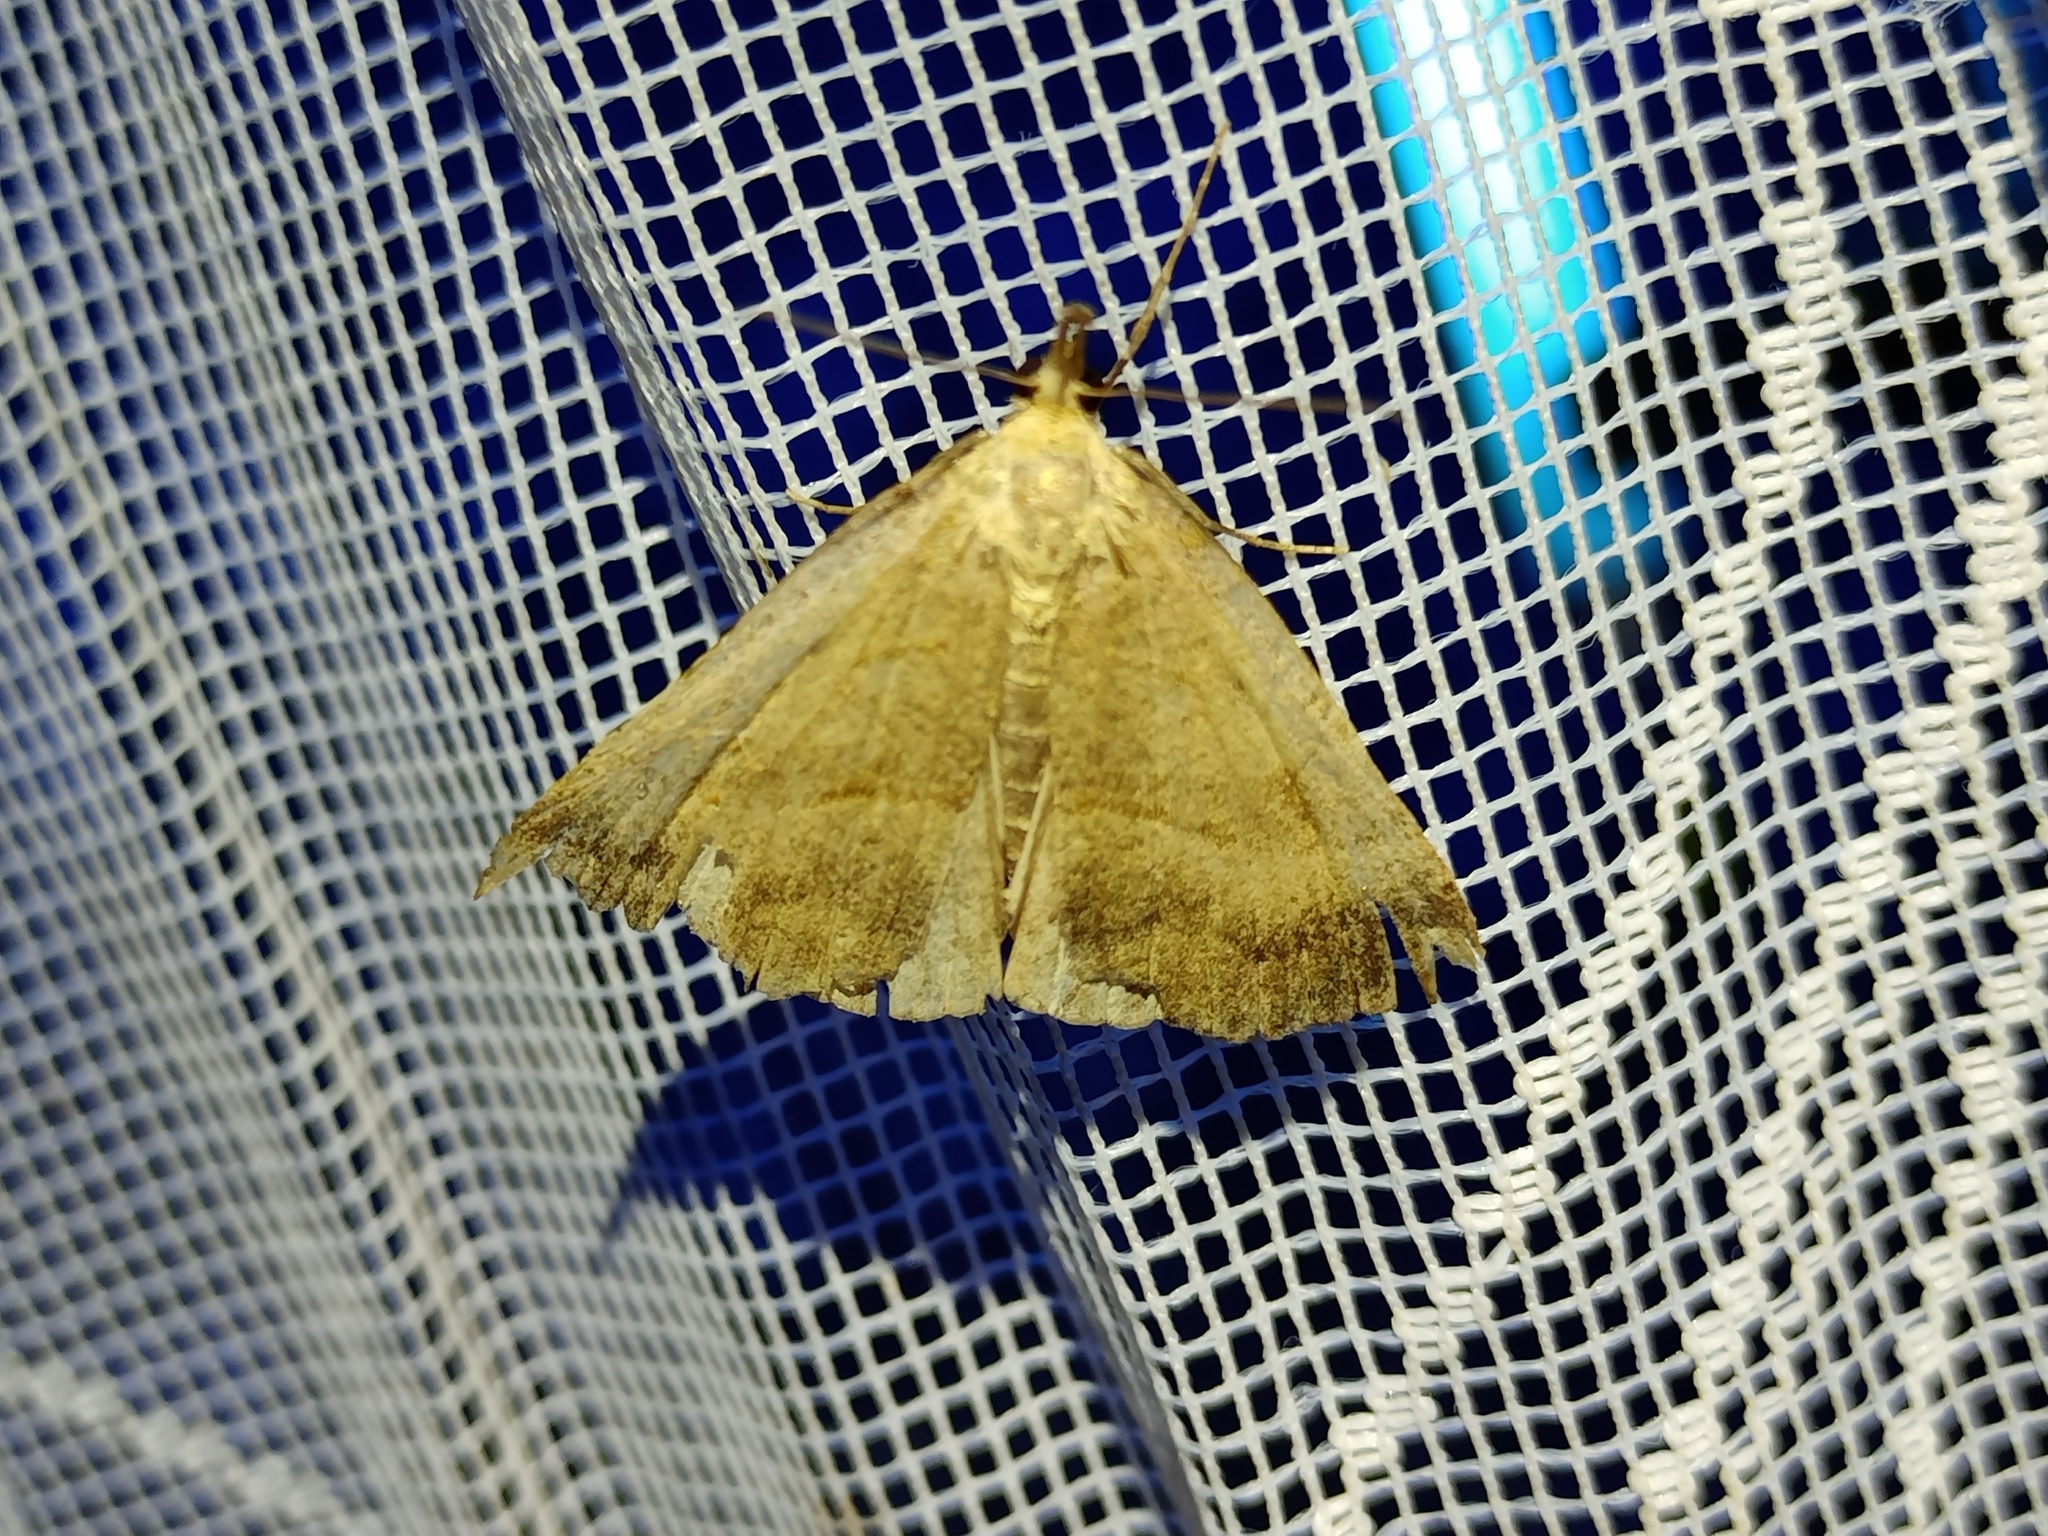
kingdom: Animalia
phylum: Arthropoda
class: Insecta
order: Lepidoptera
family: Erebidae
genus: Hypena
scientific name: Hypena proboscidalis
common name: Snout
